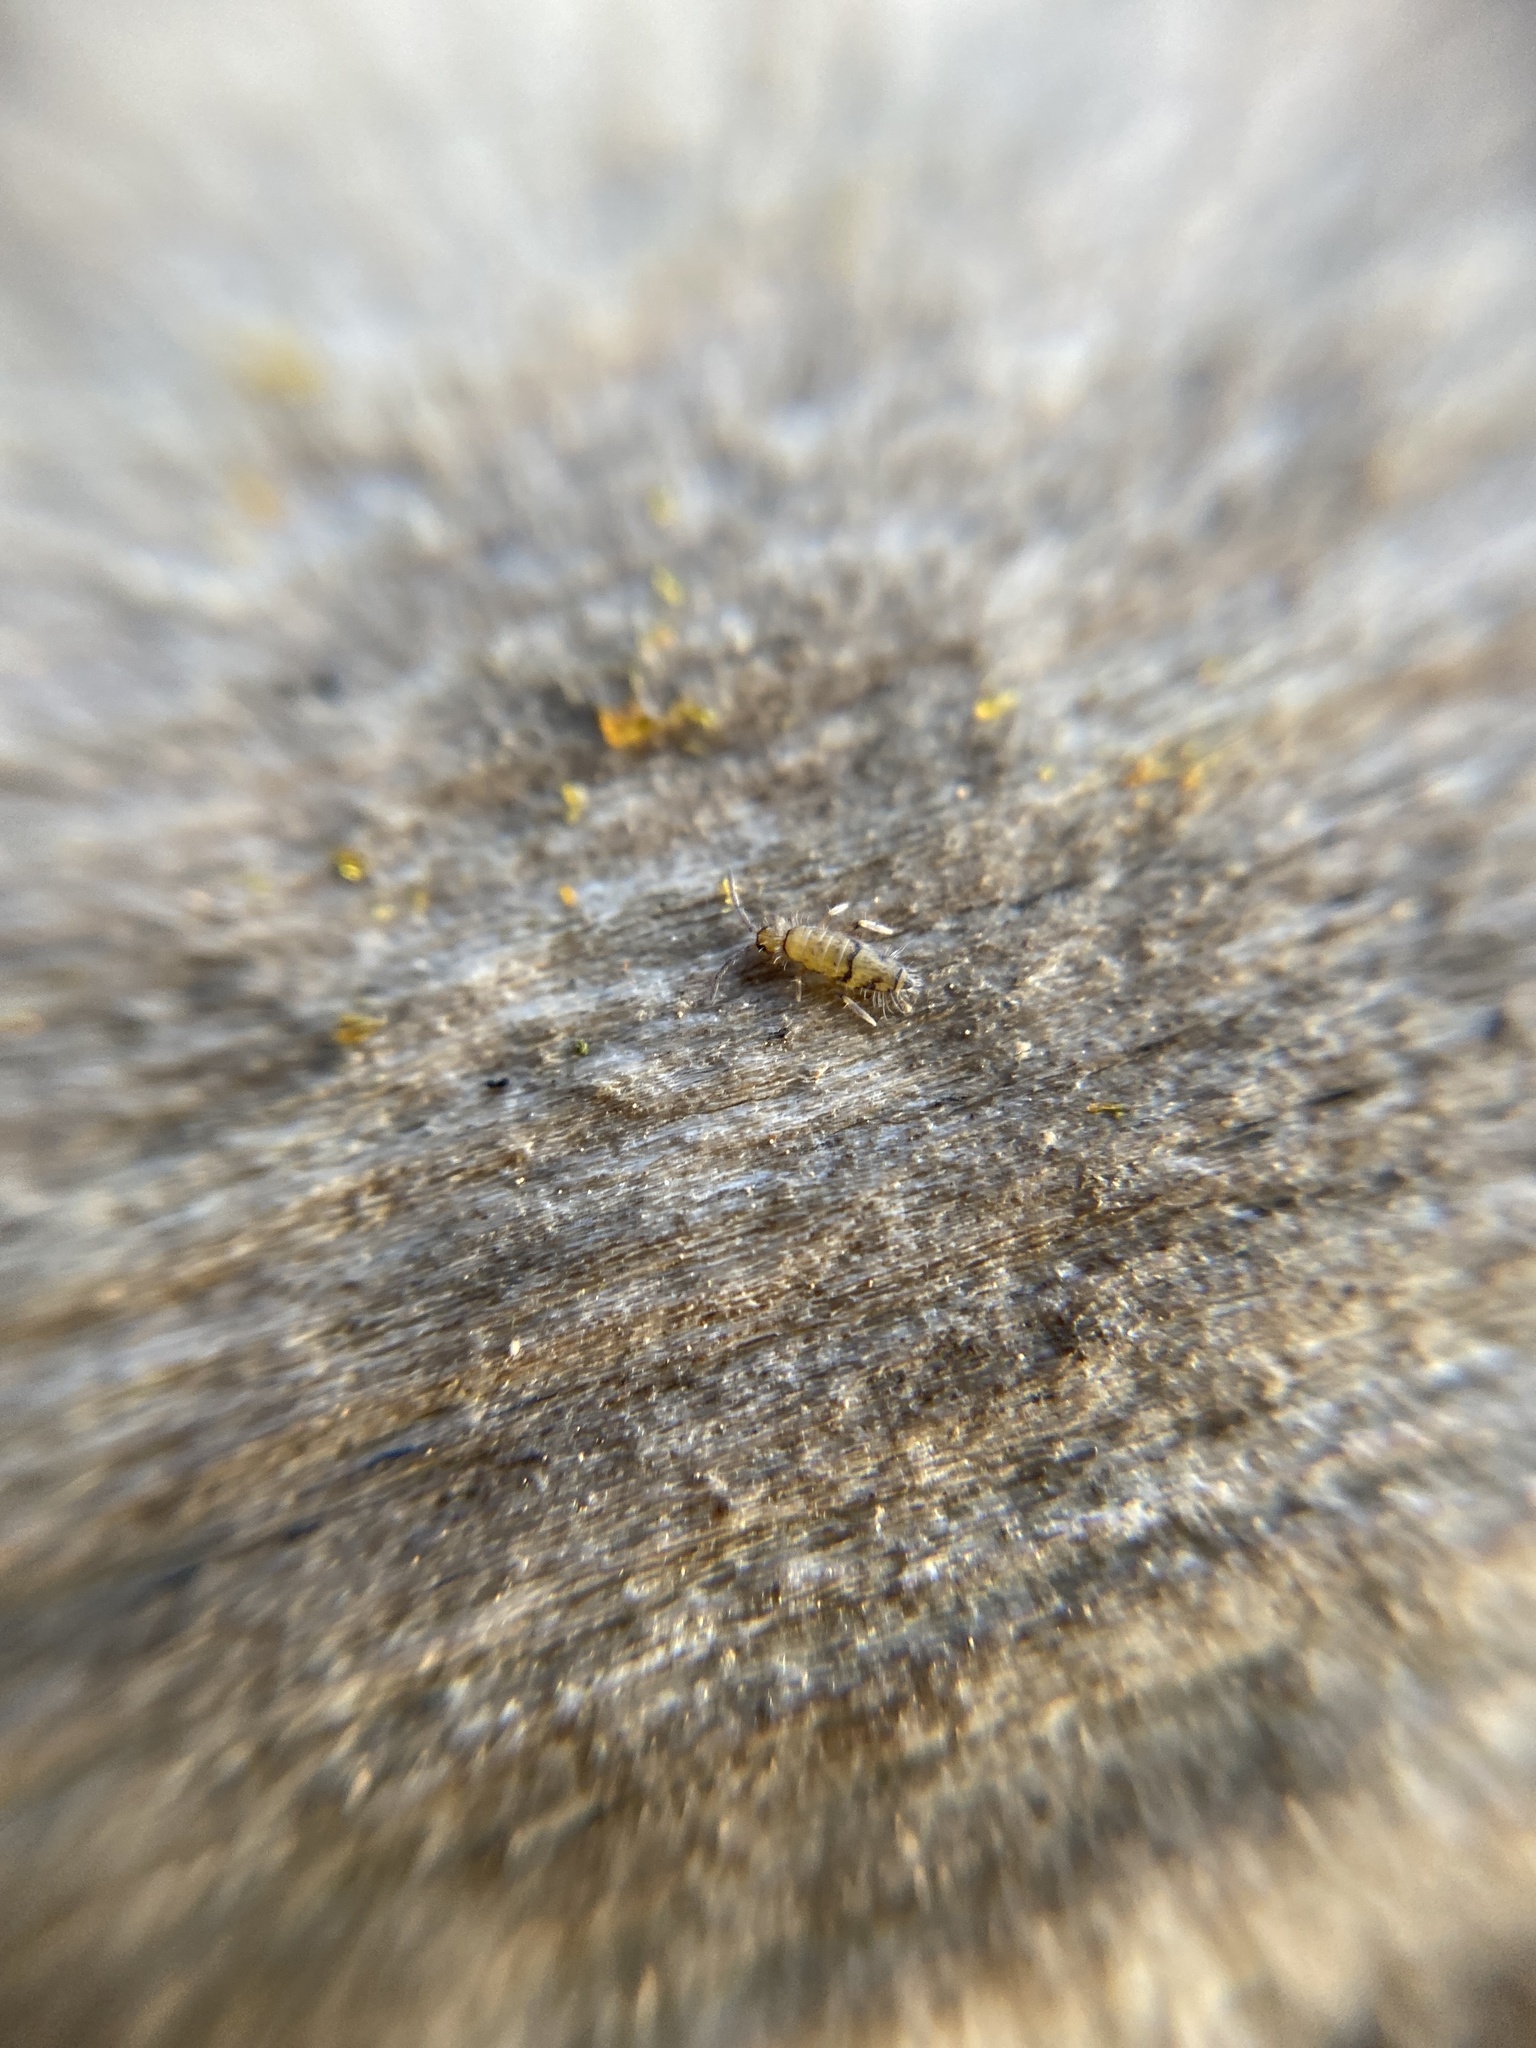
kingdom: Animalia
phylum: Arthropoda
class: Collembola
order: Entomobryomorpha
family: Entomobryidae
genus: Willowsia
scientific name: Willowsia nigromaculata
